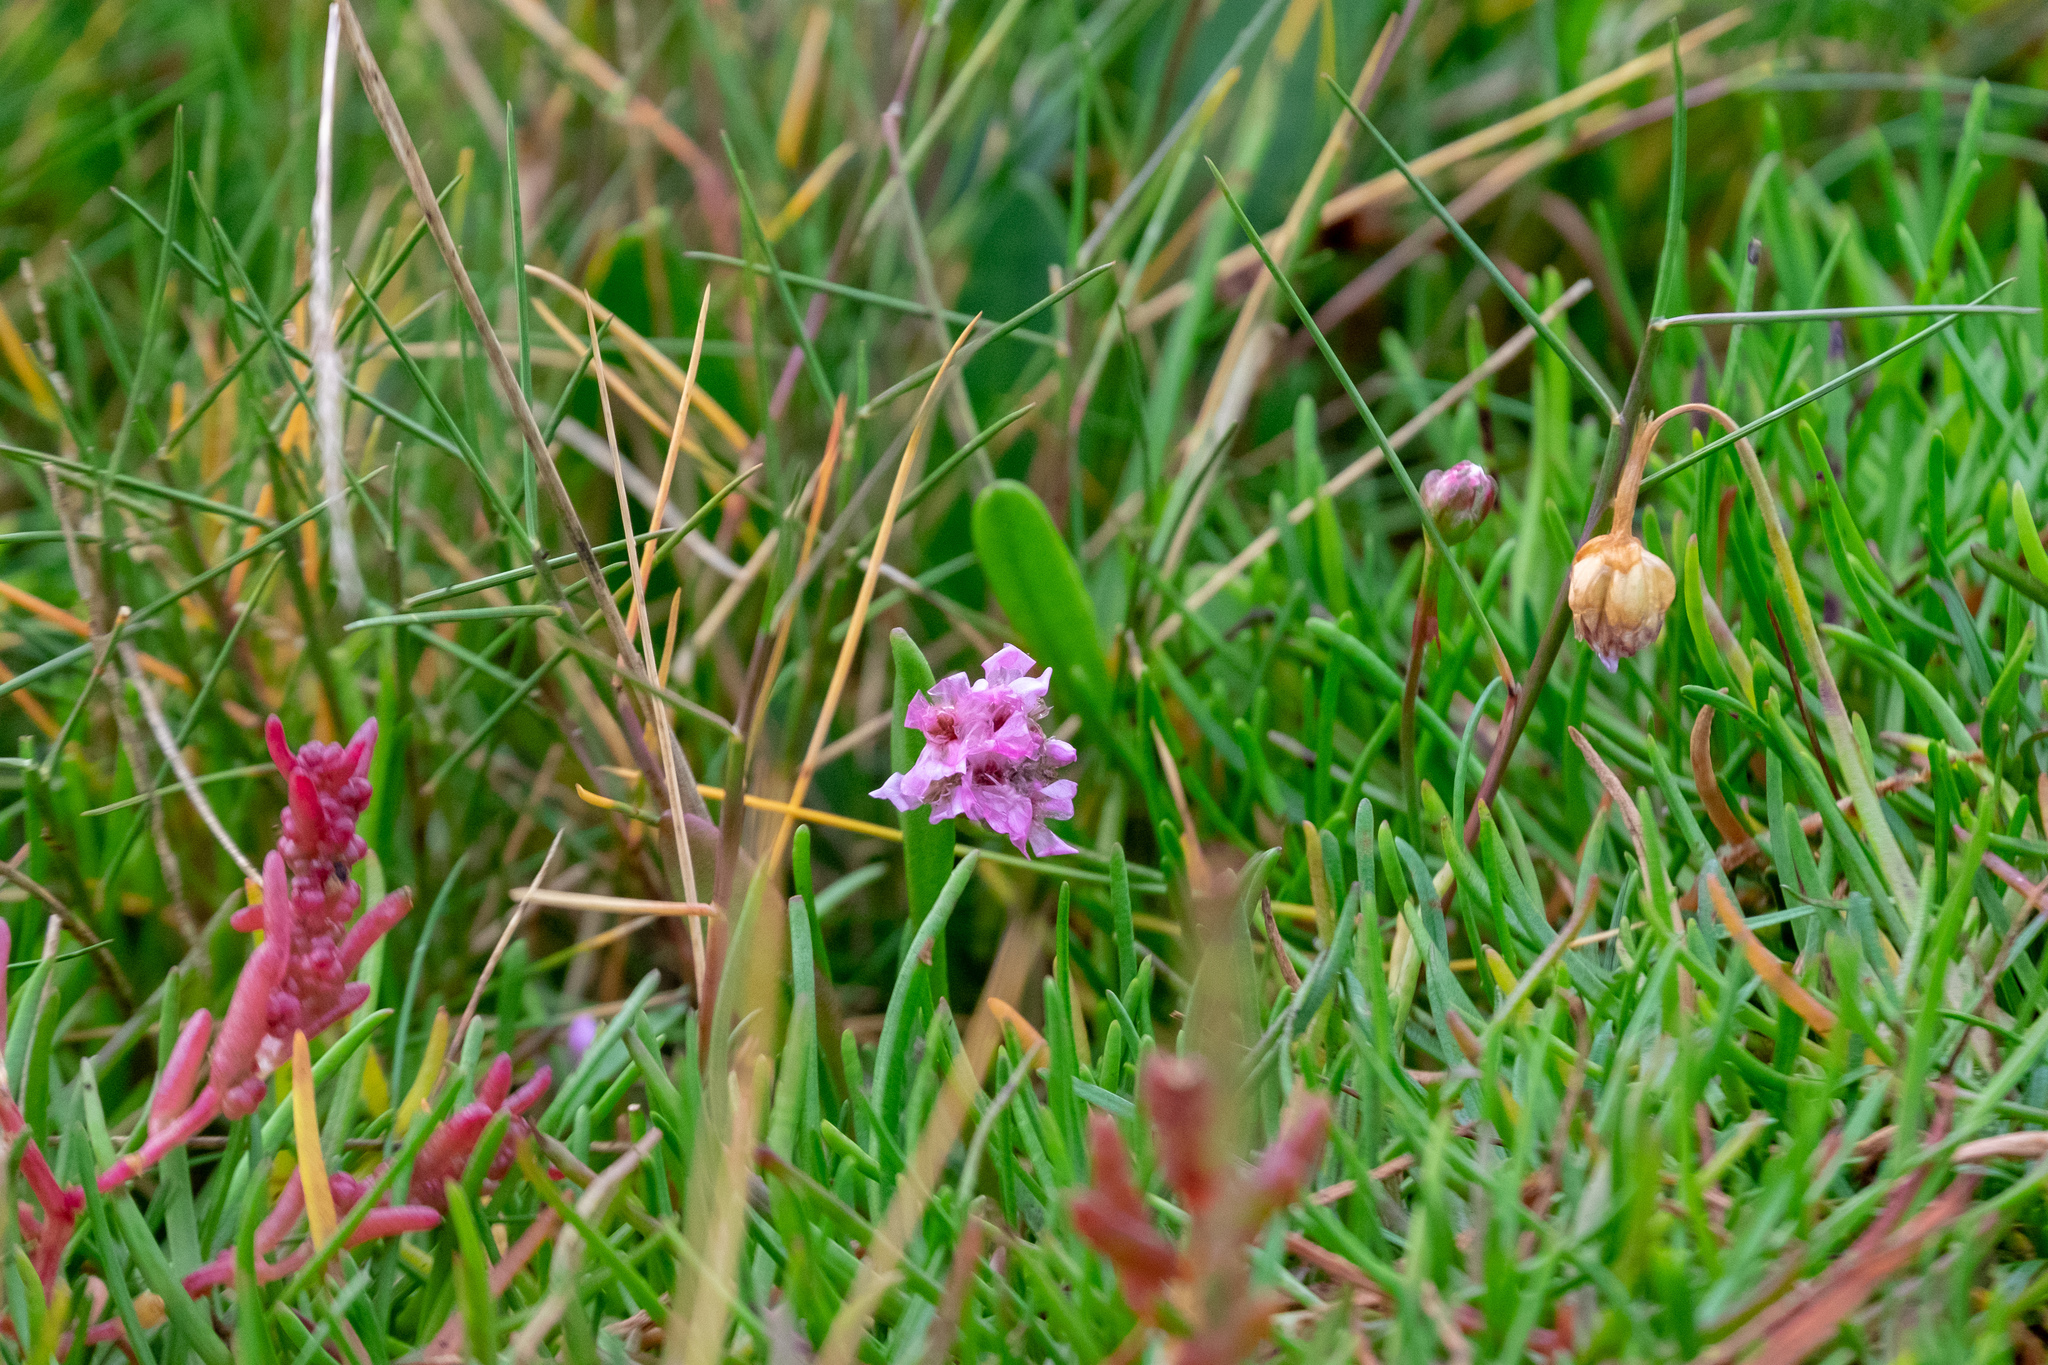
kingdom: Plantae
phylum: Tracheophyta
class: Magnoliopsida
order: Caryophyllales
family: Plumbaginaceae
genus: Armeria
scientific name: Armeria maritima
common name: Thrift
